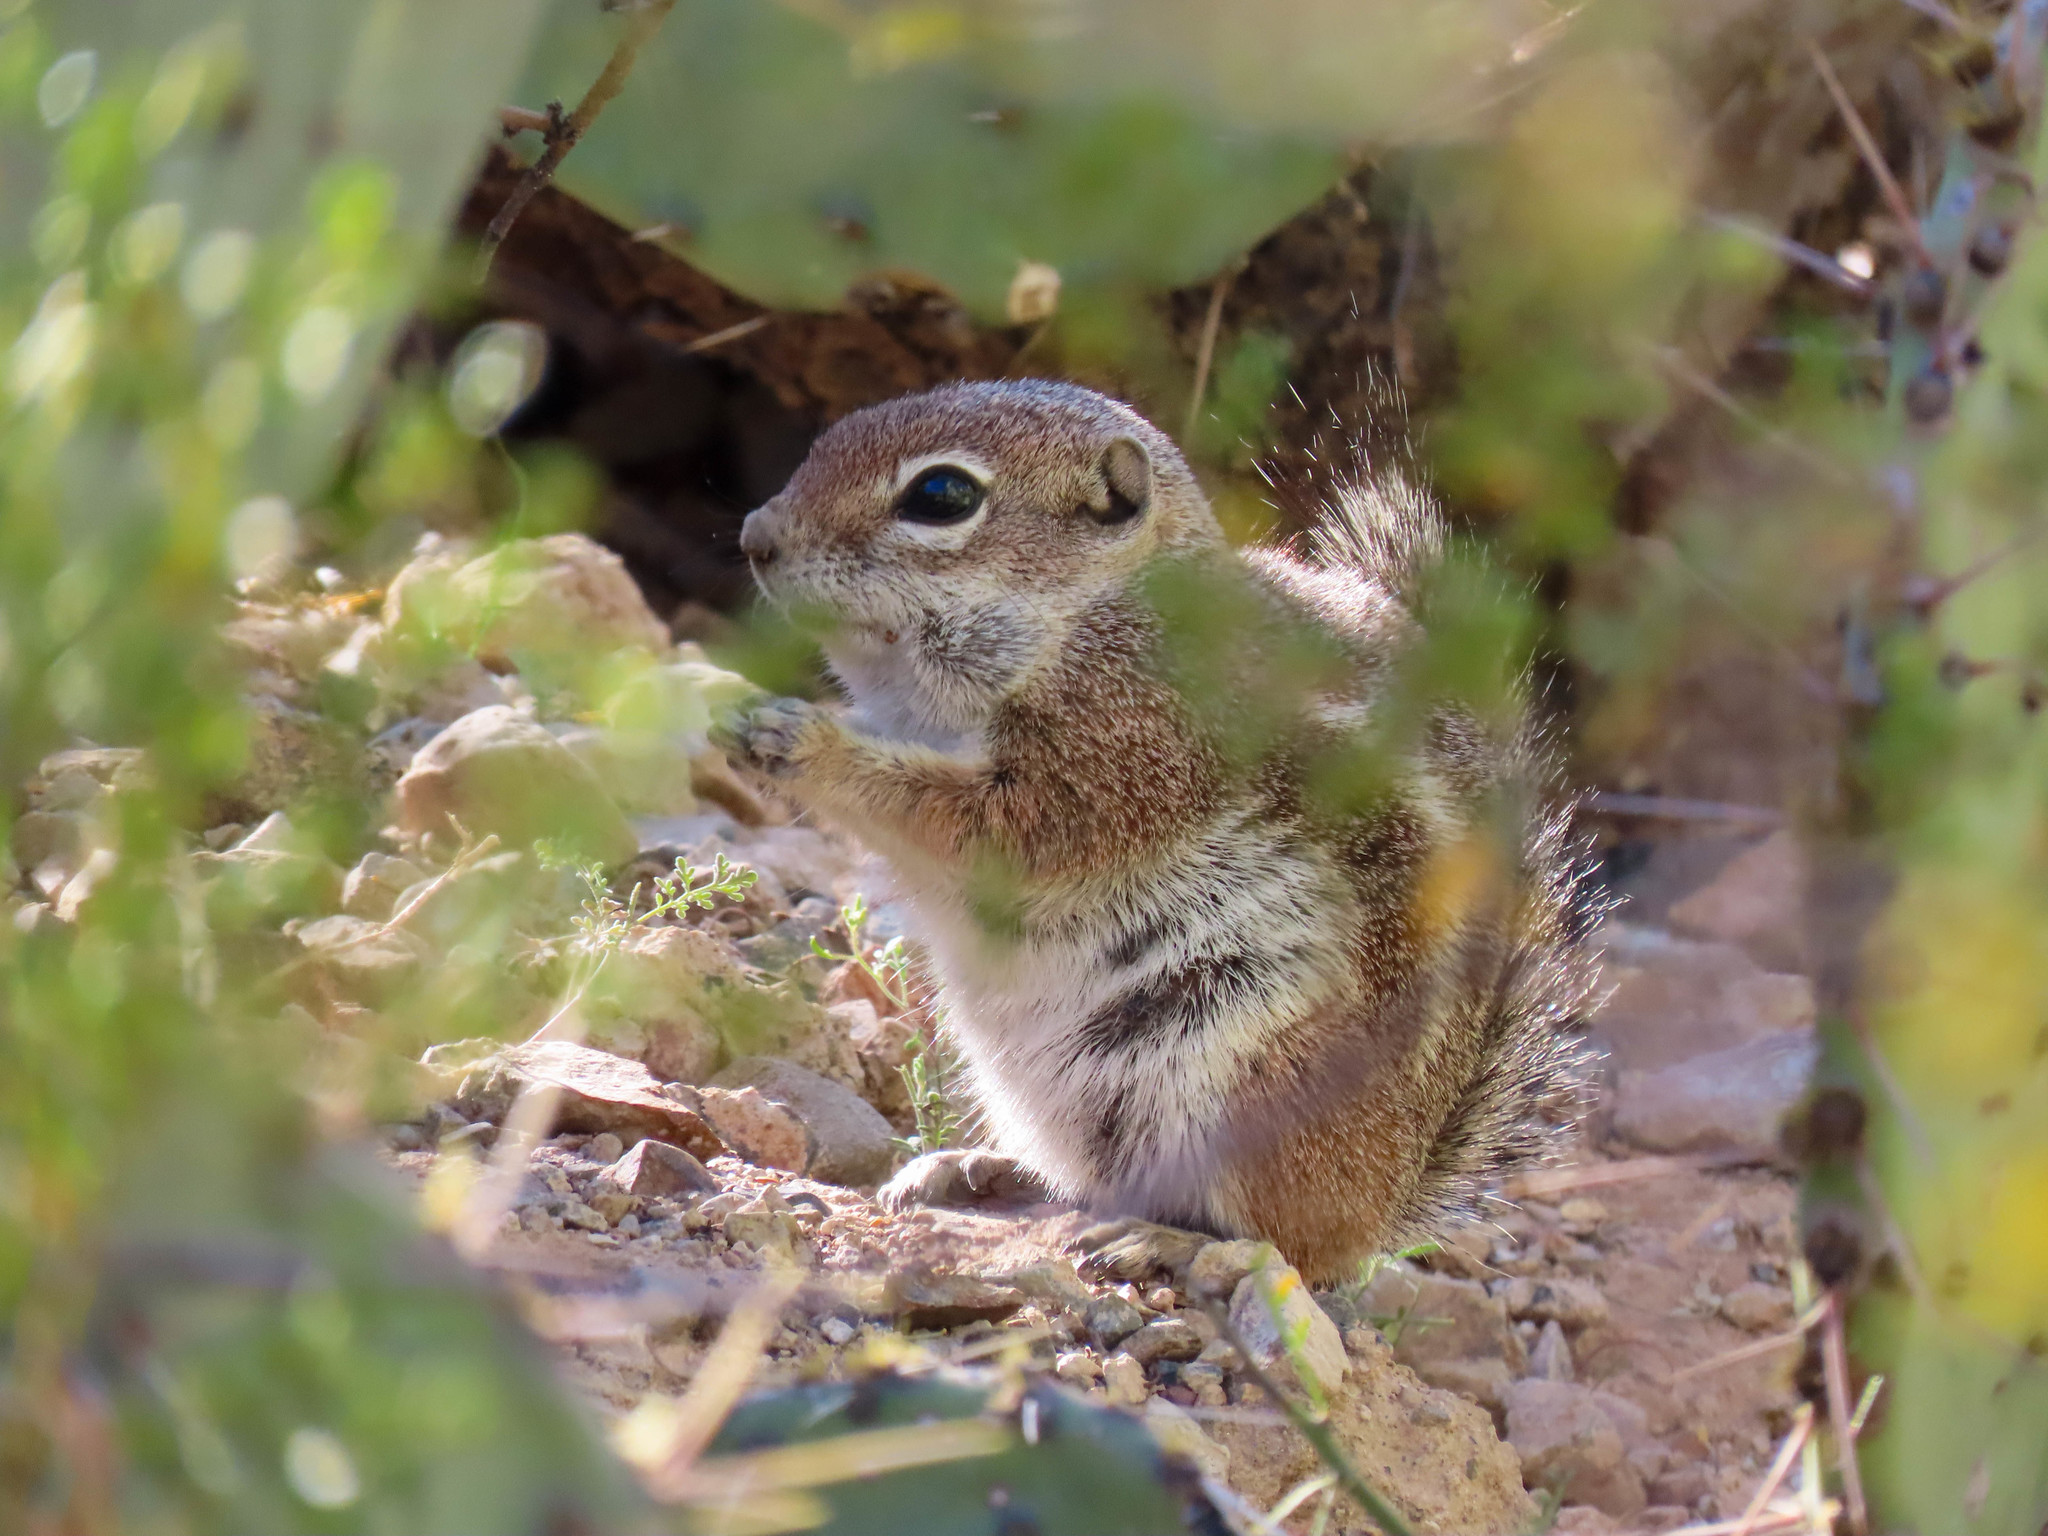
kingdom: Animalia
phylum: Chordata
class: Mammalia
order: Rodentia
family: Sciuridae
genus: Ammospermophilus
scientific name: Ammospermophilus harrisii
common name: Harris's antelope squirrel
